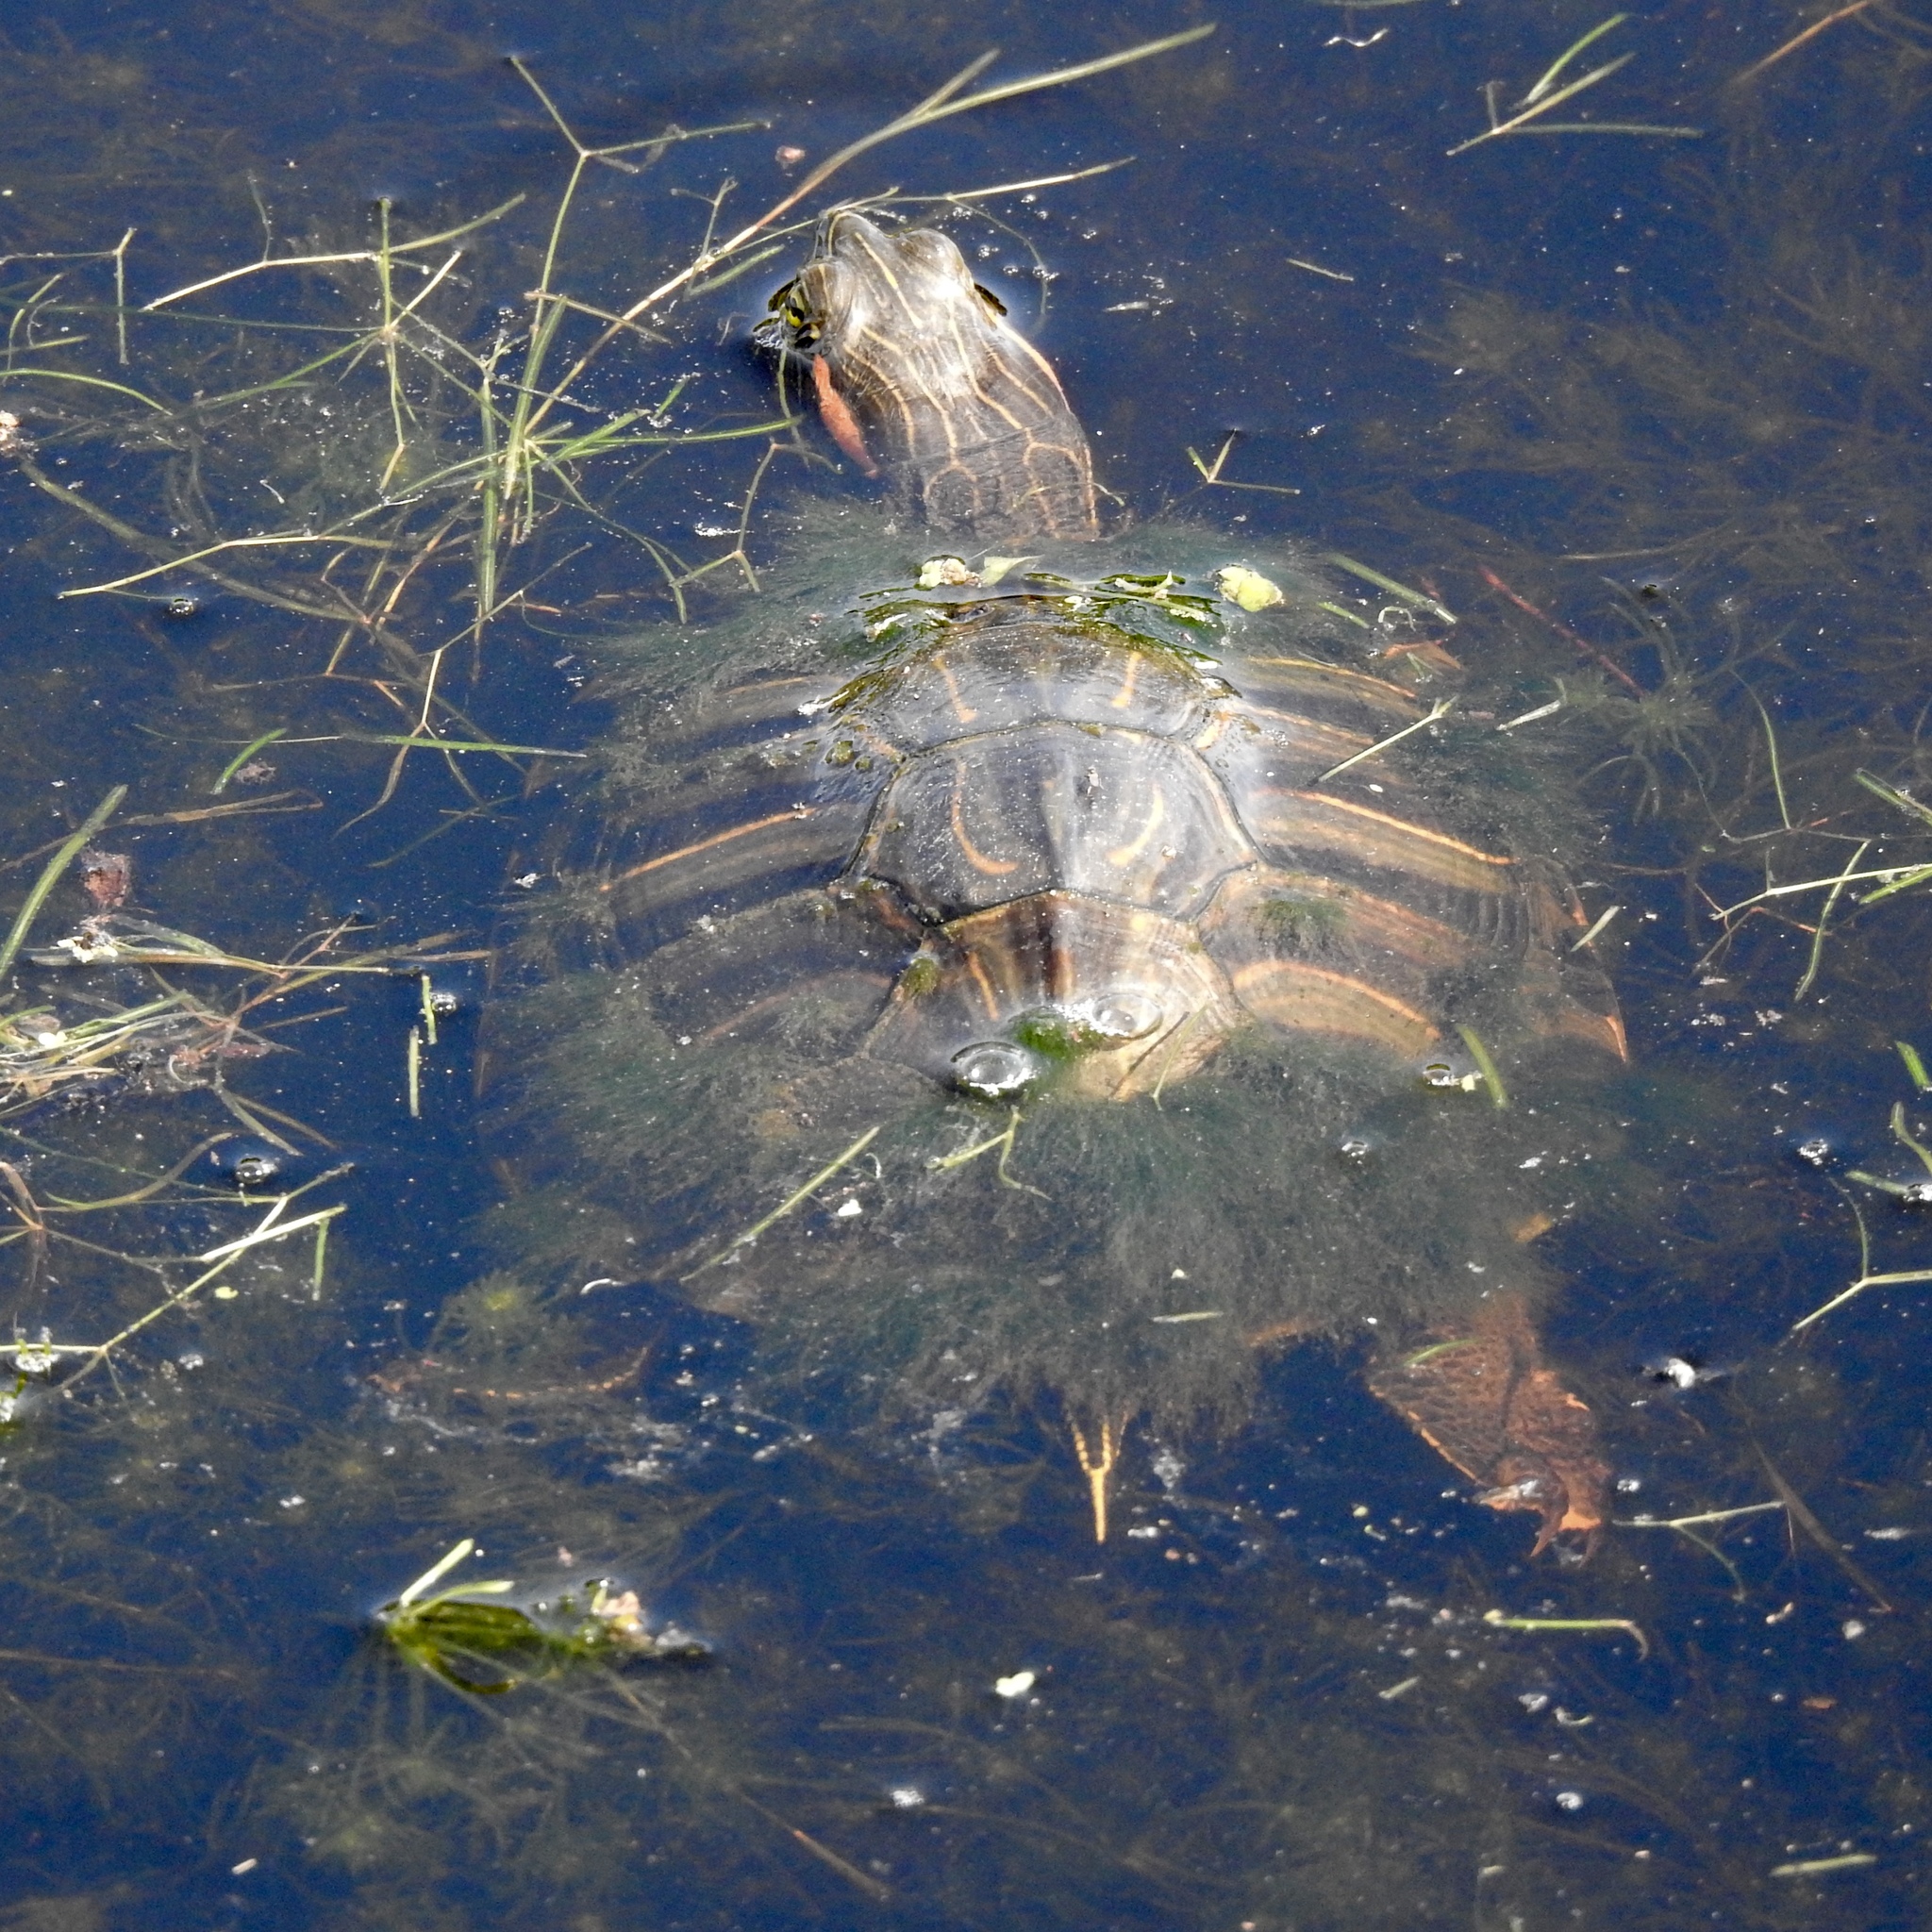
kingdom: Animalia
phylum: Chordata
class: Testudines
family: Emydidae
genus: Trachemys
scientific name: Trachemys scripta
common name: Slider
